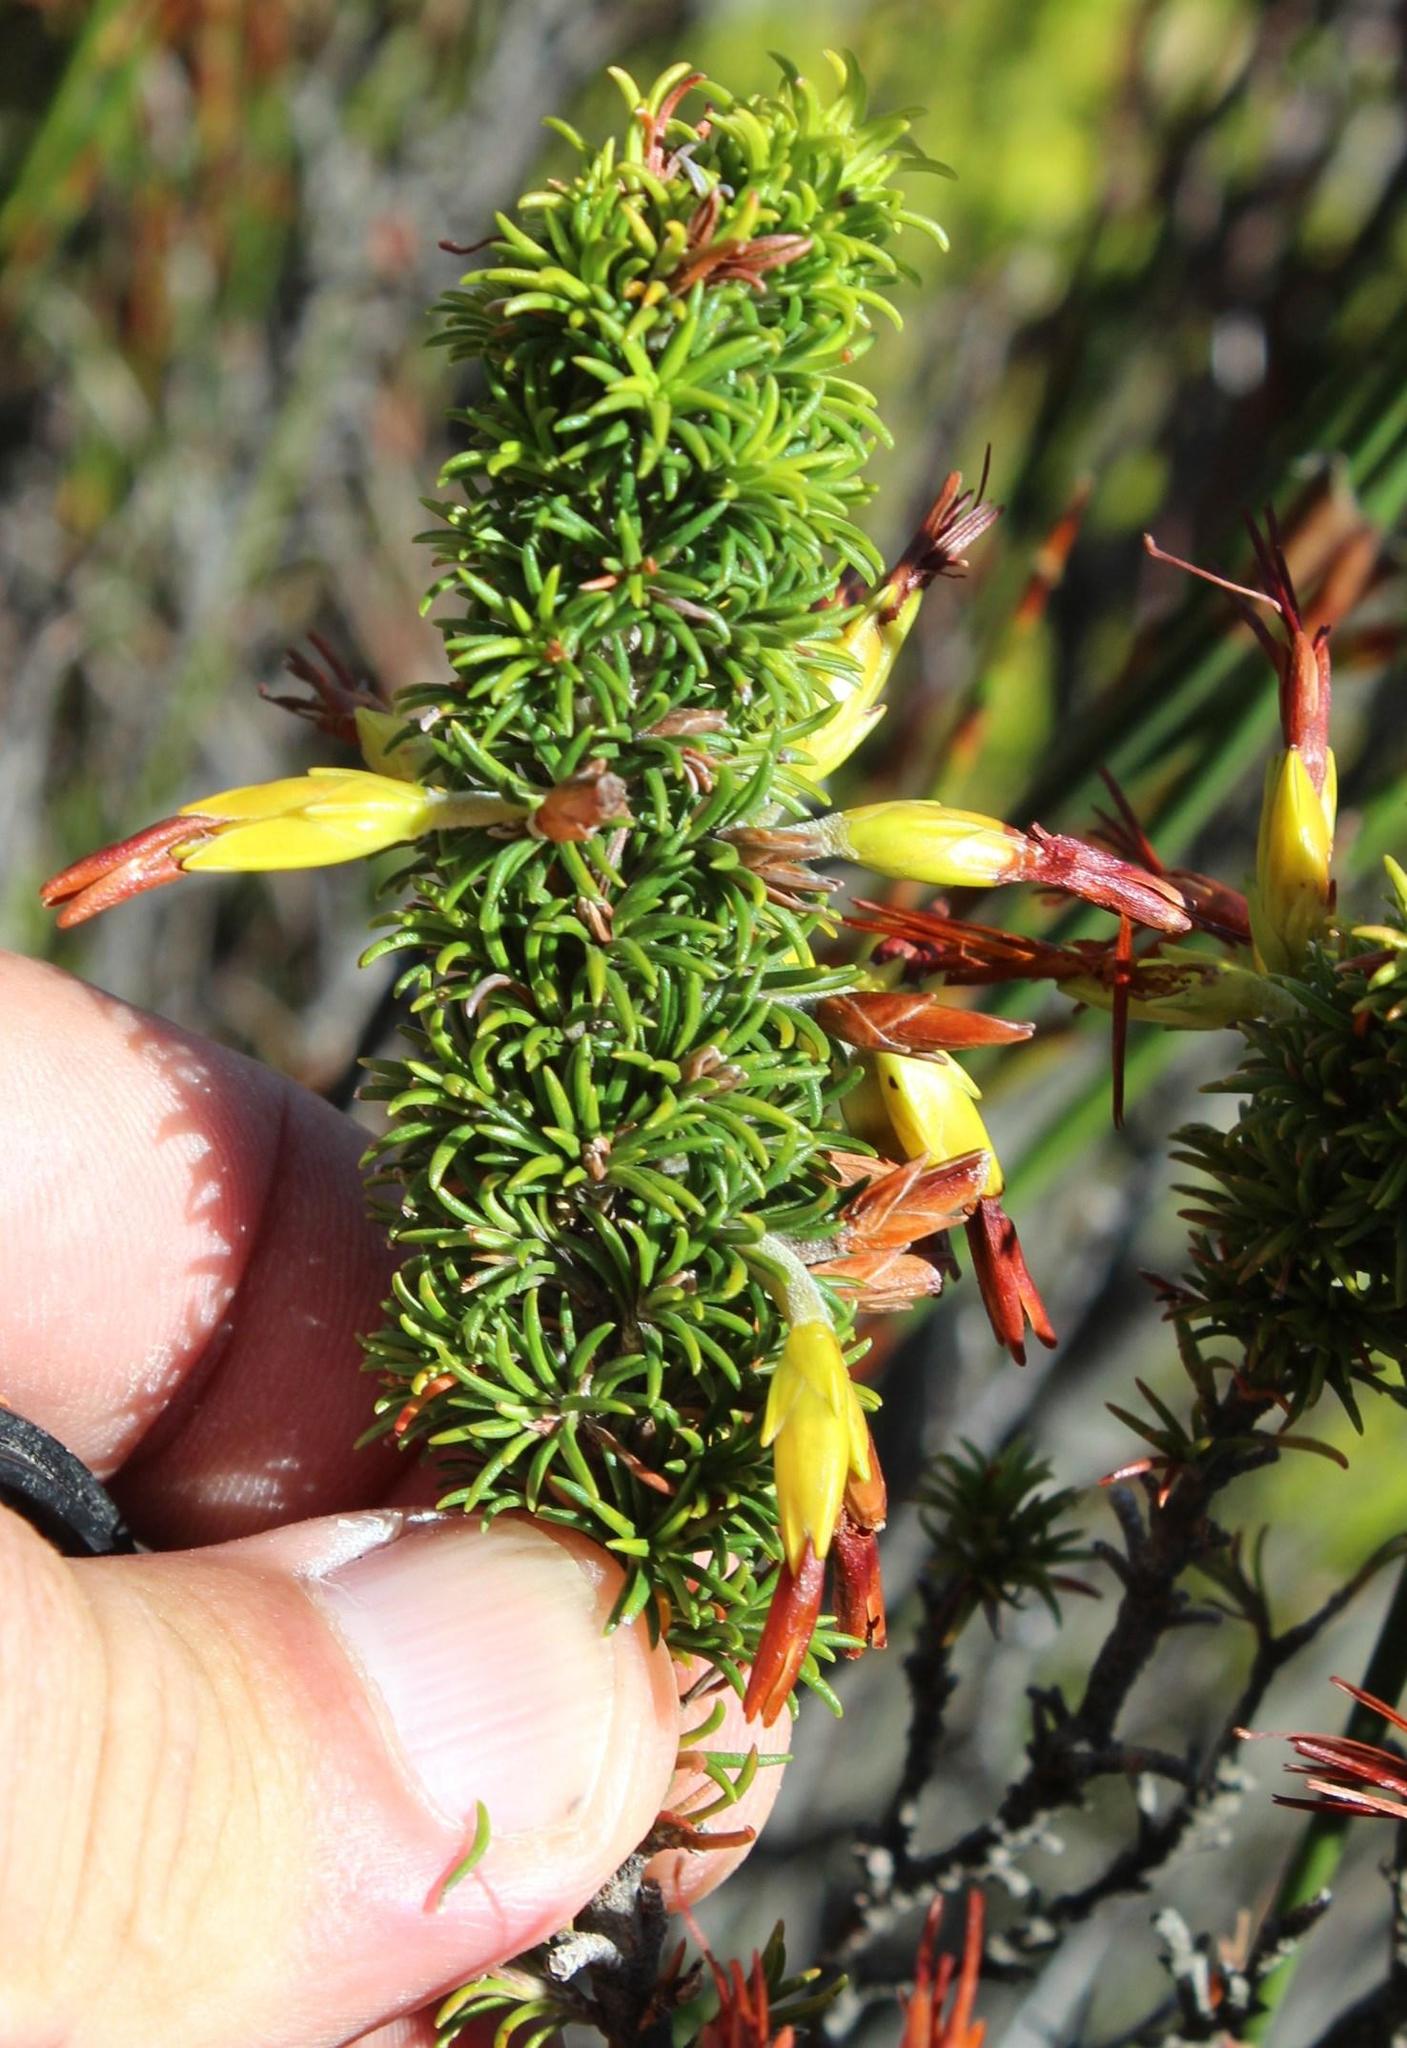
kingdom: Plantae
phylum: Tracheophyta
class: Magnoliopsida
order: Ericales
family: Ericaceae
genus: Erica
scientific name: Erica coccinea
